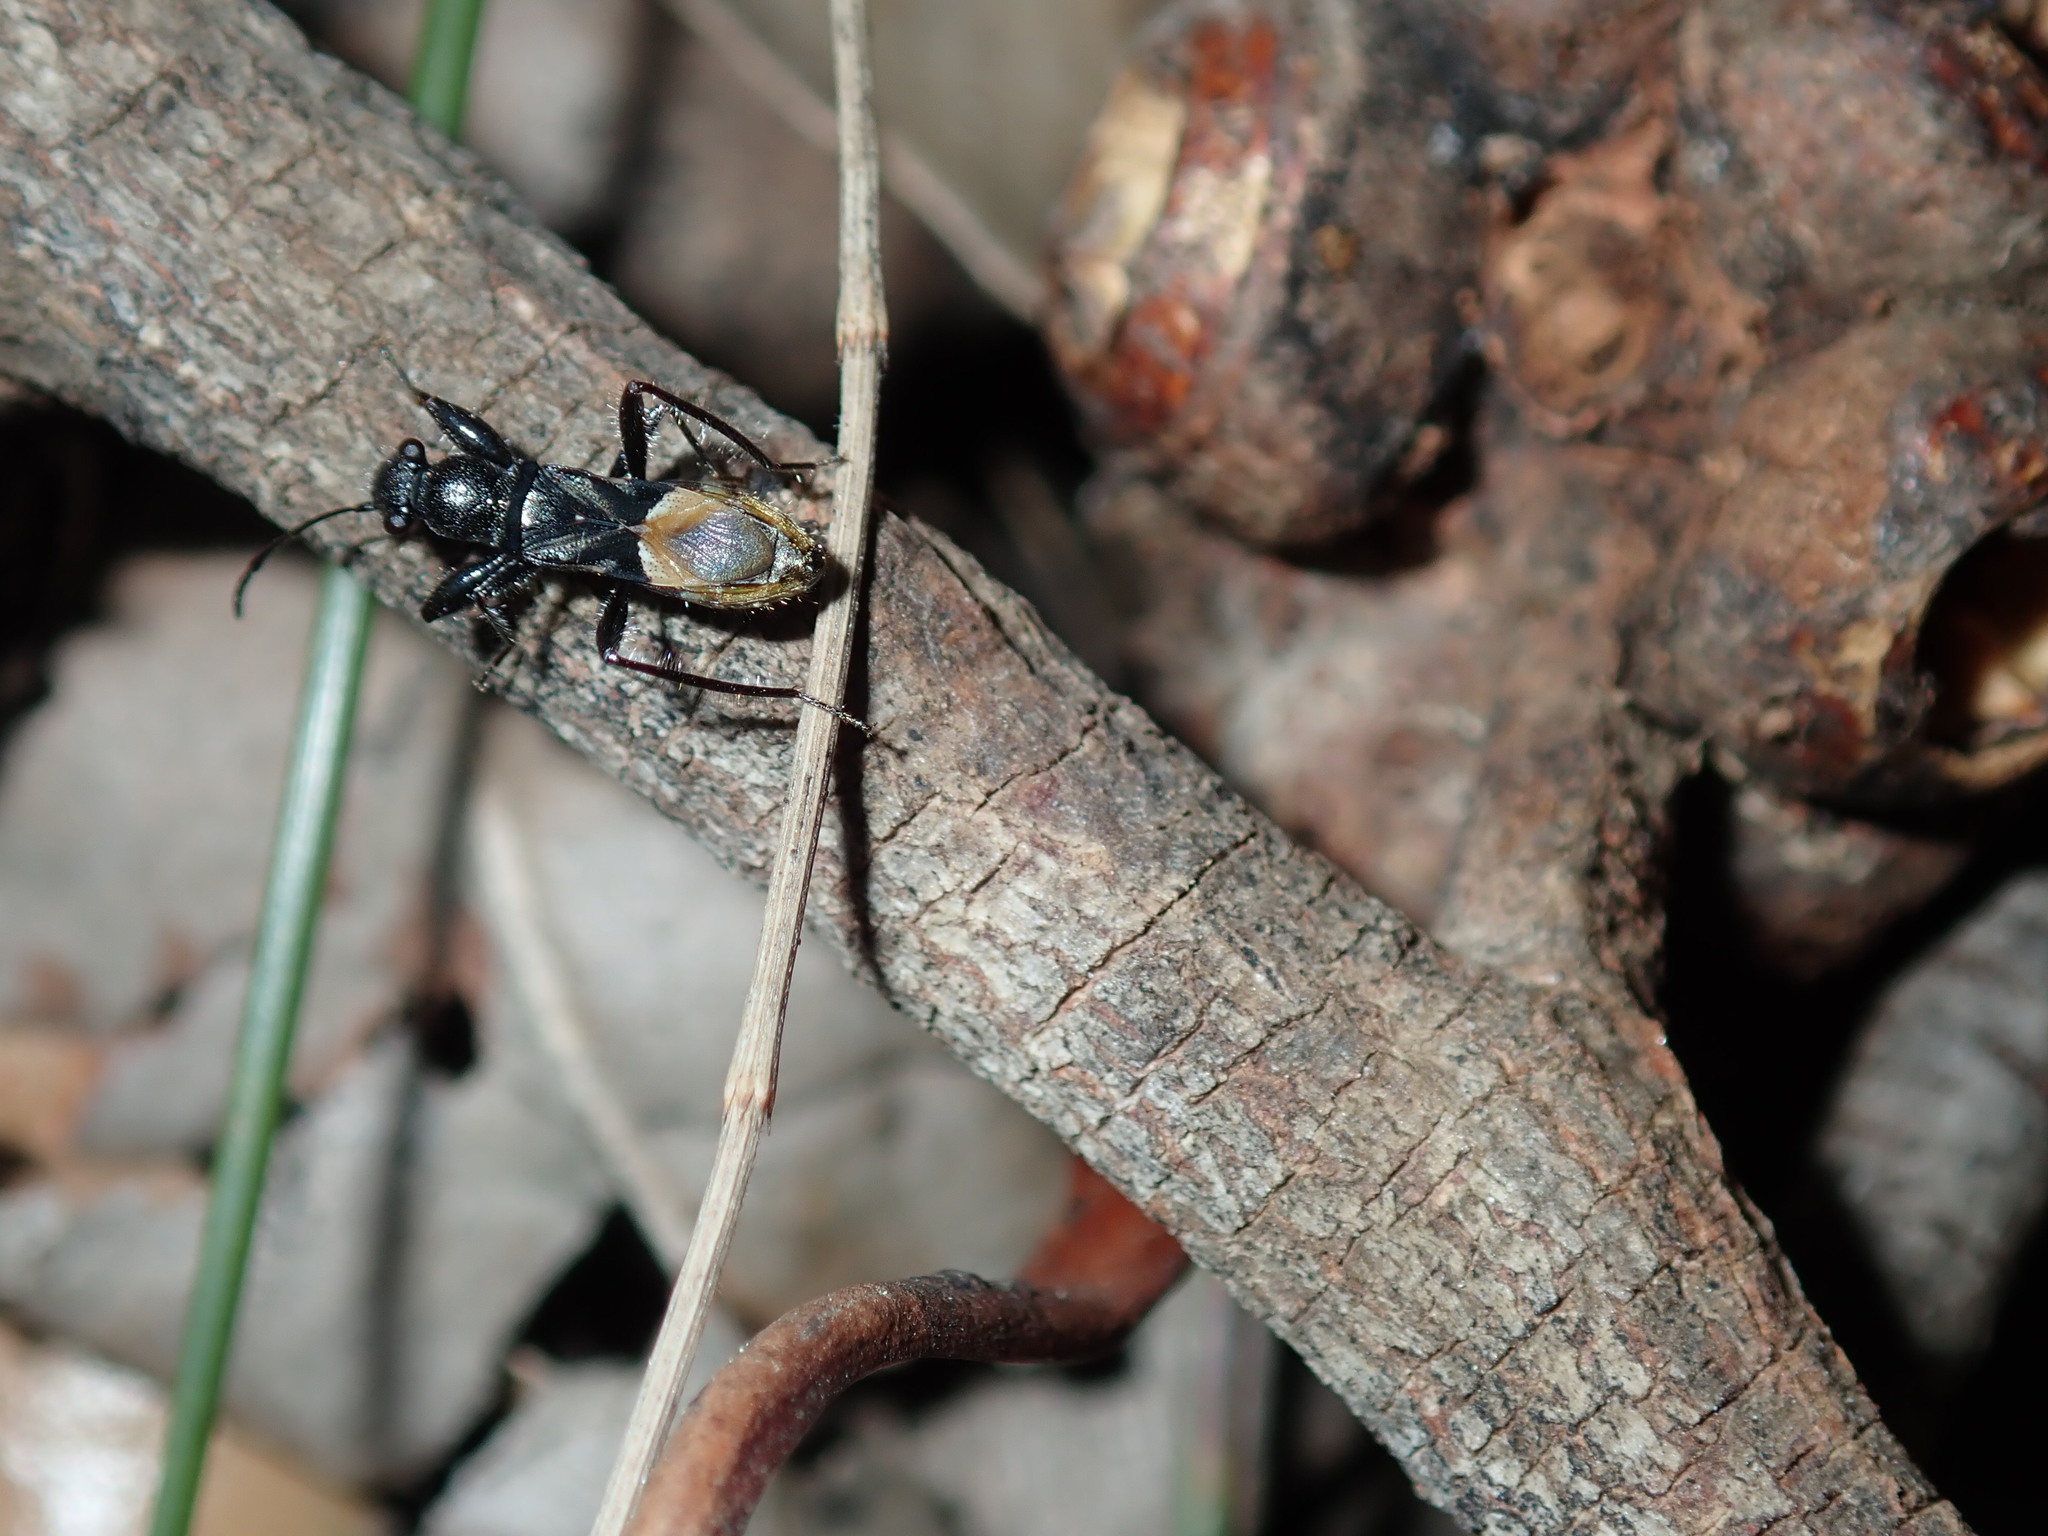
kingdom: Animalia
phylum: Arthropoda
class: Insecta
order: Hemiptera
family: Rhyparochromidae
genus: Daerlac
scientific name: Daerlac nigricans
